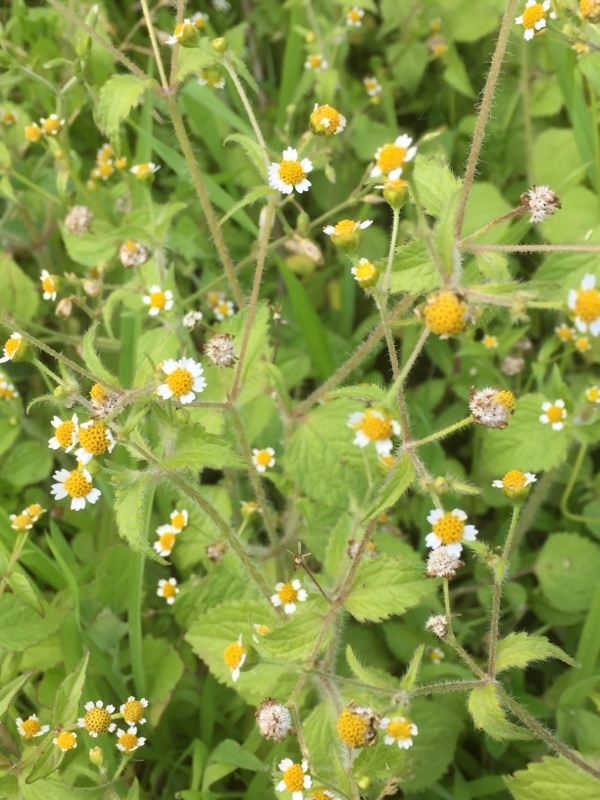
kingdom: Plantae
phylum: Tracheophyta
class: Magnoliopsida
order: Asterales
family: Asteraceae
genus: Galinsoga
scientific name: Galinsoga quadriradiata
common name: Shaggy soldier
